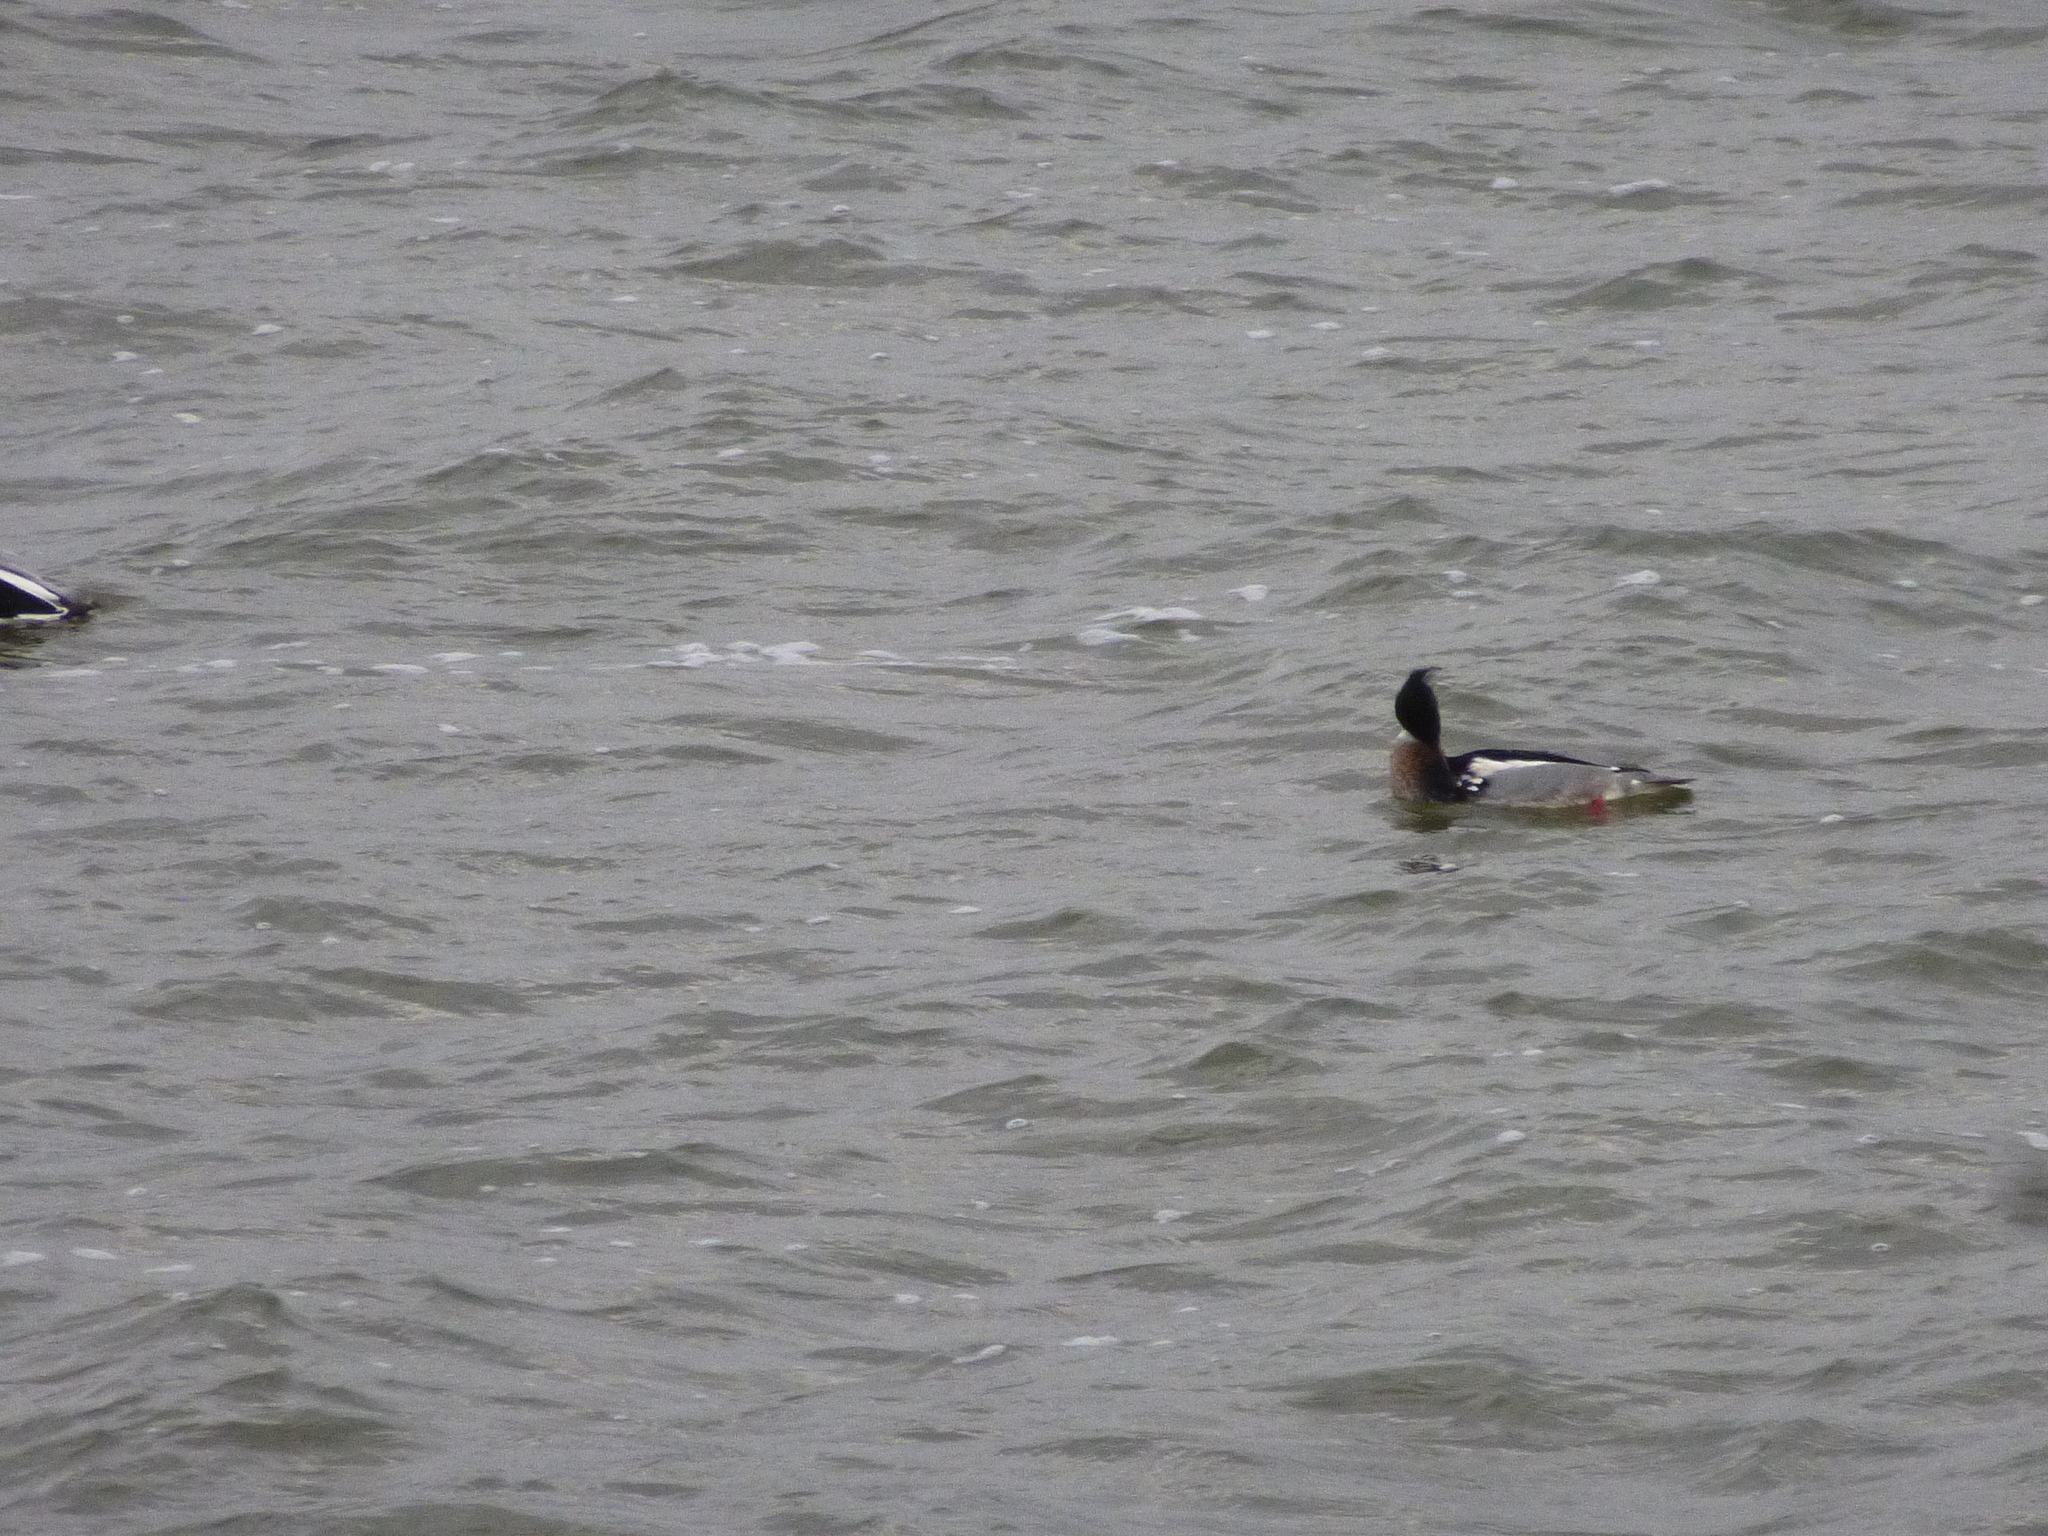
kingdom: Animalia
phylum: Chordata
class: Aves
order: Anseriformes
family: Anatidae
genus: Mergus
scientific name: Mergus serrator
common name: Red-breasted merganser
